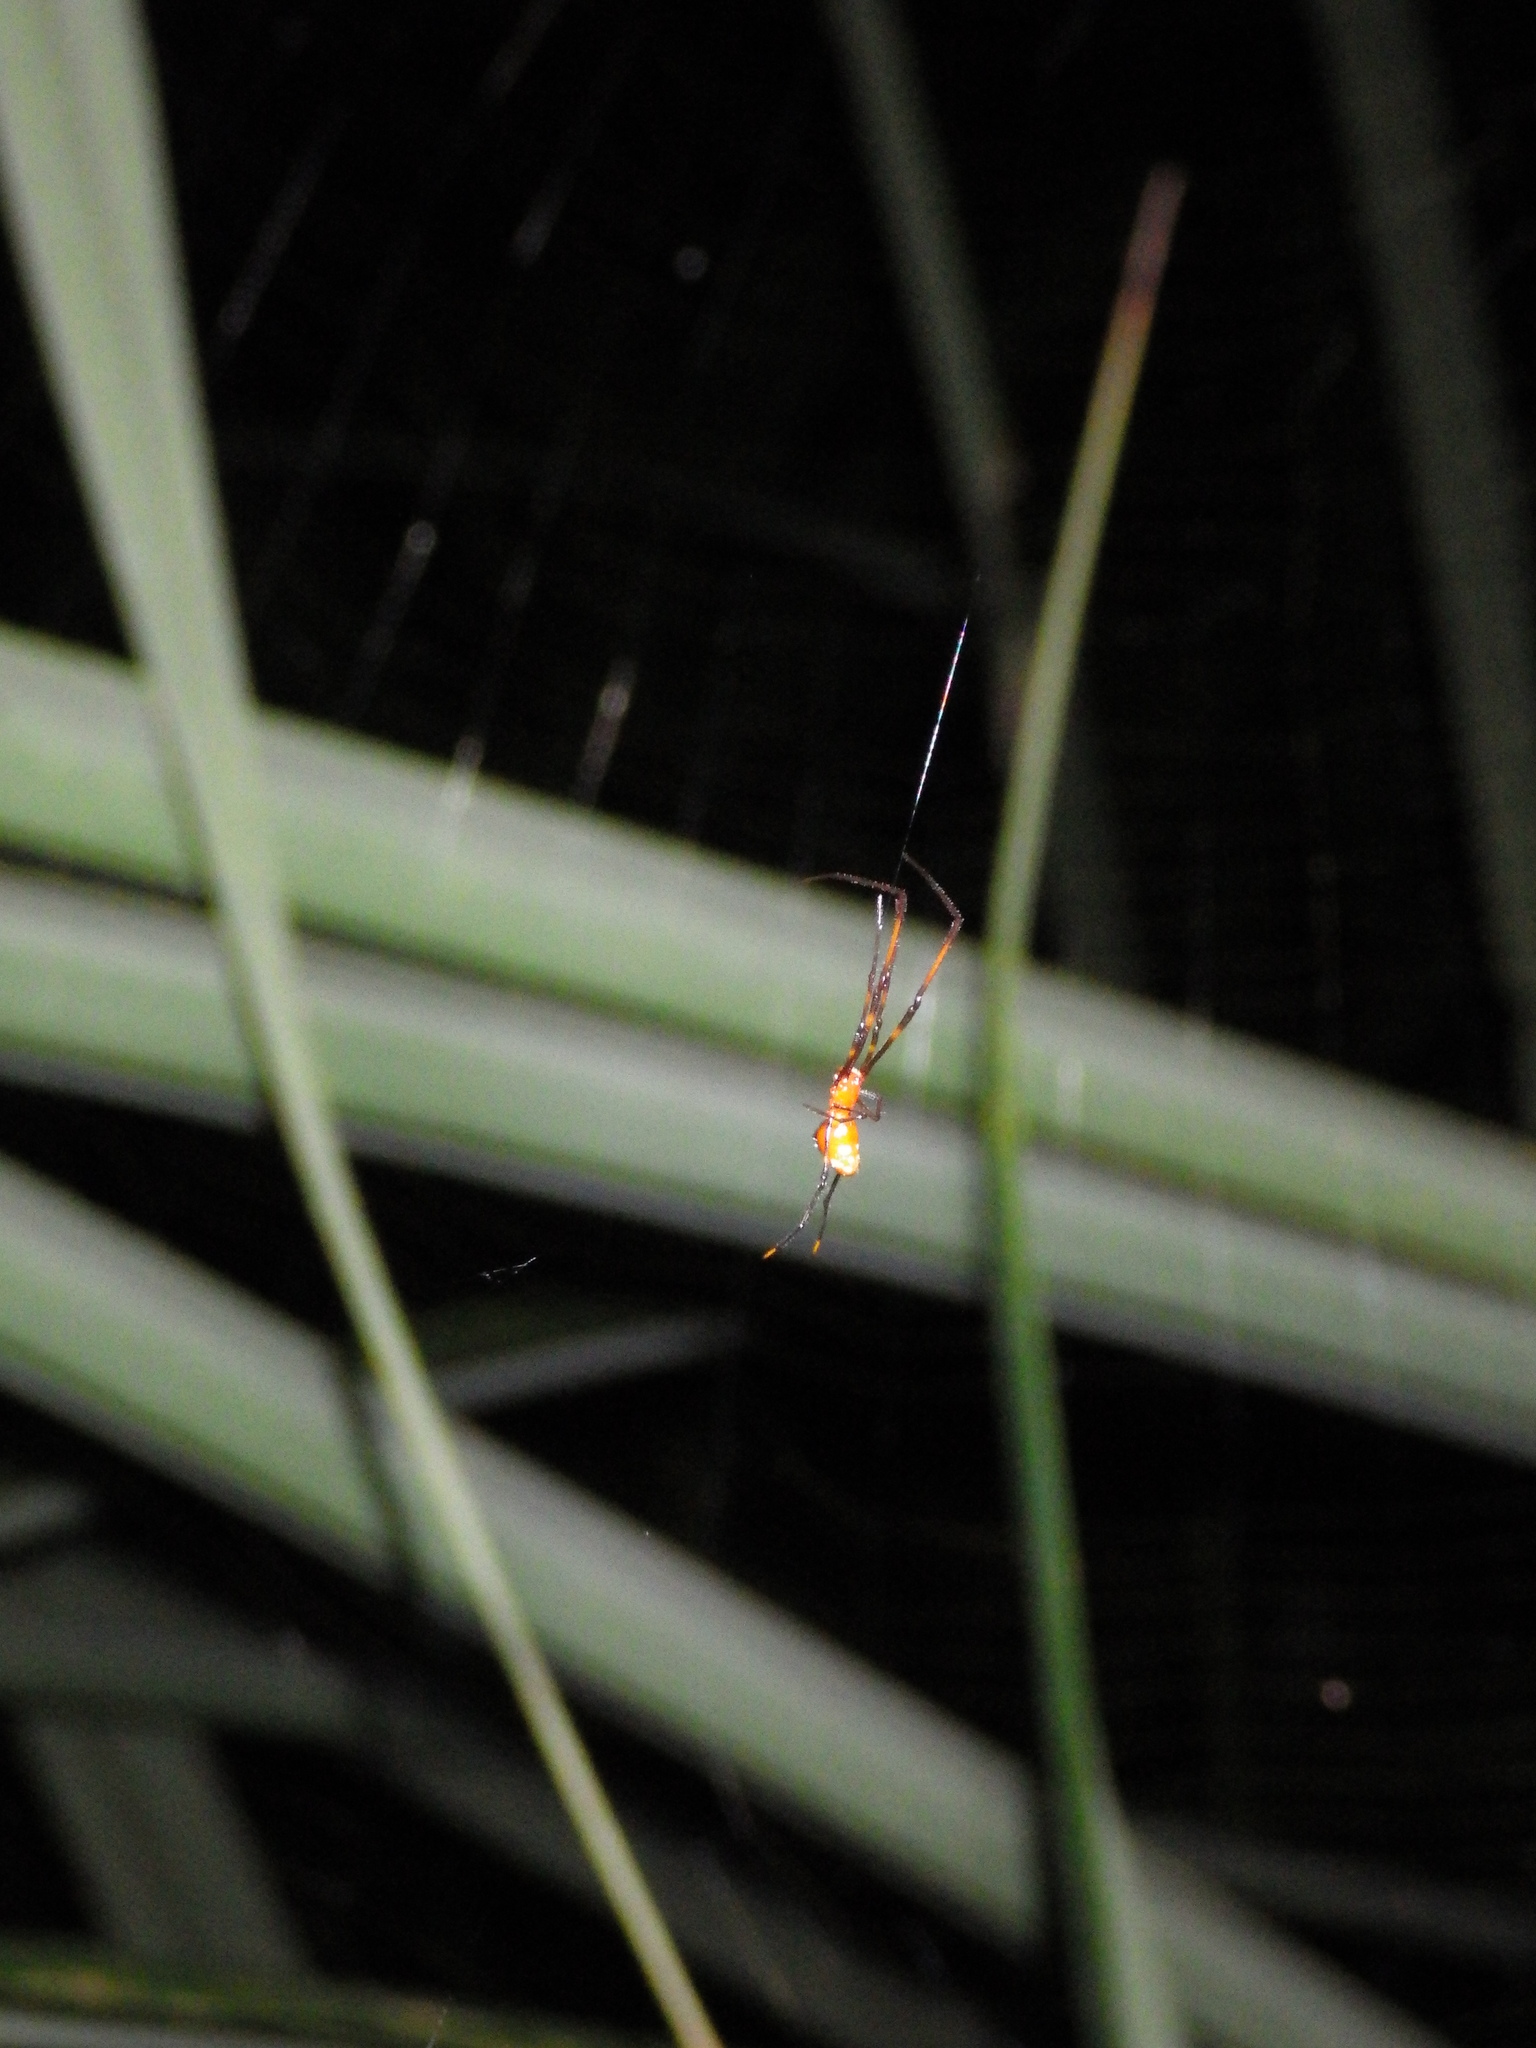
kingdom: Animalia
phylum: Arthropoda
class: Arachnida
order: Araneae
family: Theridiidae
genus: Argyrodes
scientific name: Argyrodes miniaceus
